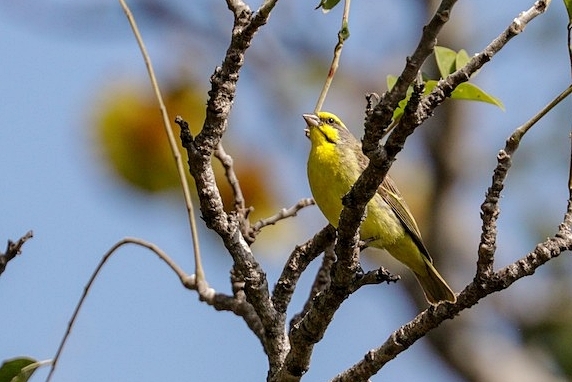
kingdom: Animalia
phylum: Chordata
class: Aves
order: Passeriformes
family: Fringillidae
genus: Crithagra
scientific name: Crithagra mozambica
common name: Yellow-fronted canary
